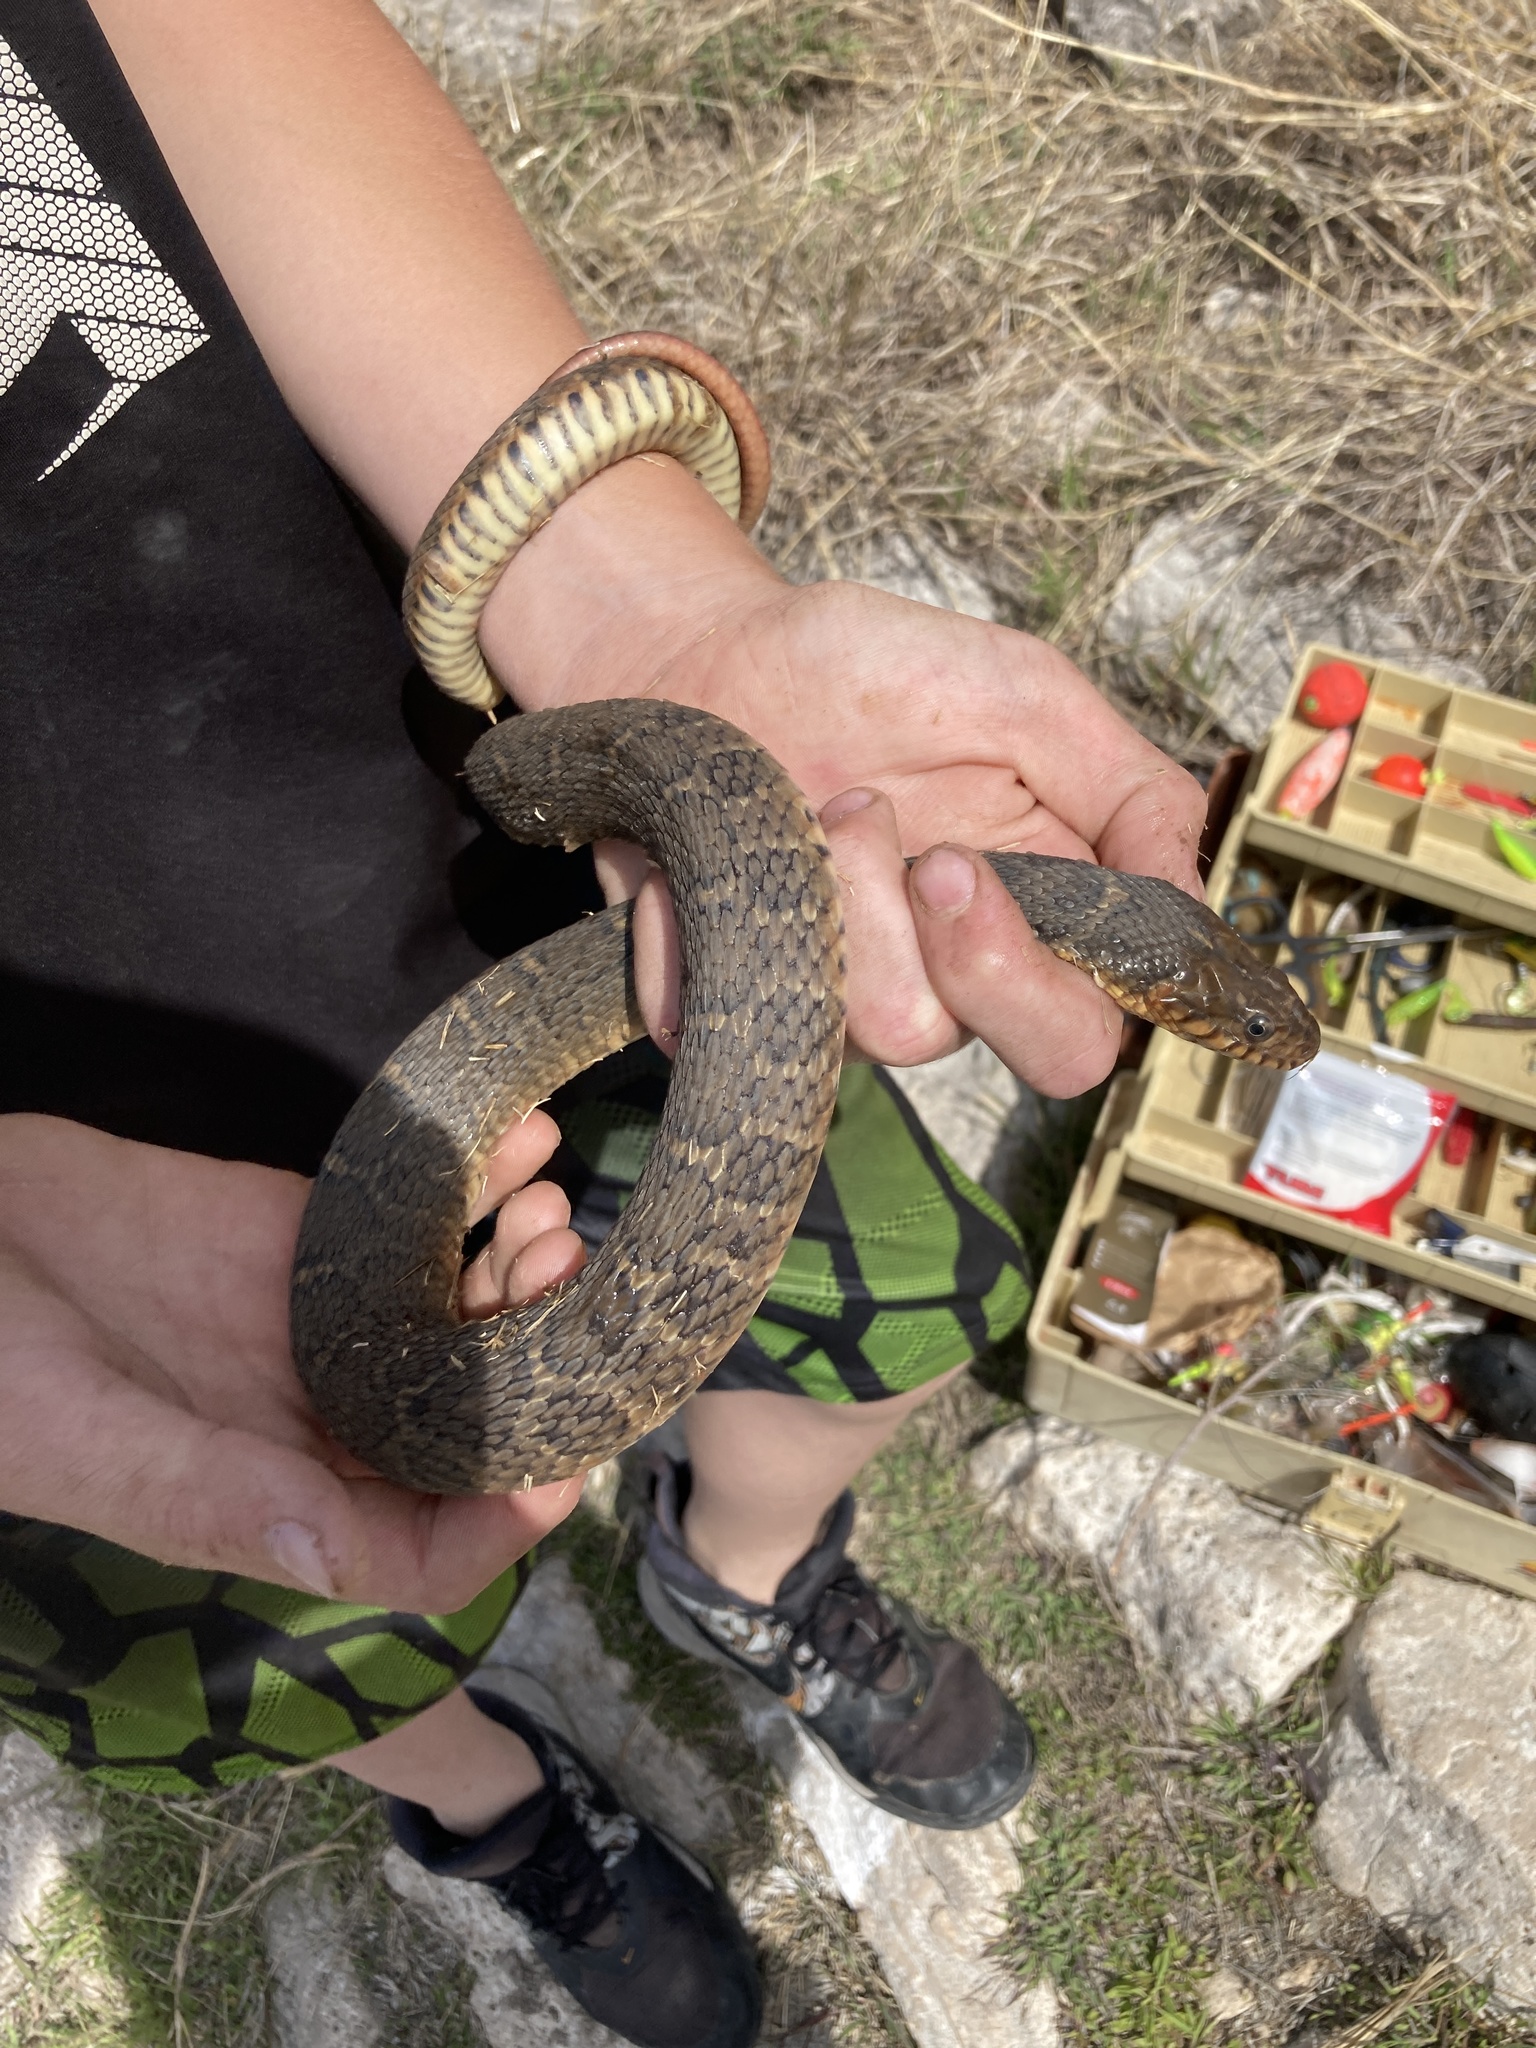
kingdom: Animalia
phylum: Chordata
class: Squamata
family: Colubridae
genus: Nerodia
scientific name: Nerodia erythrogaster
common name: Plainbelly water snake
